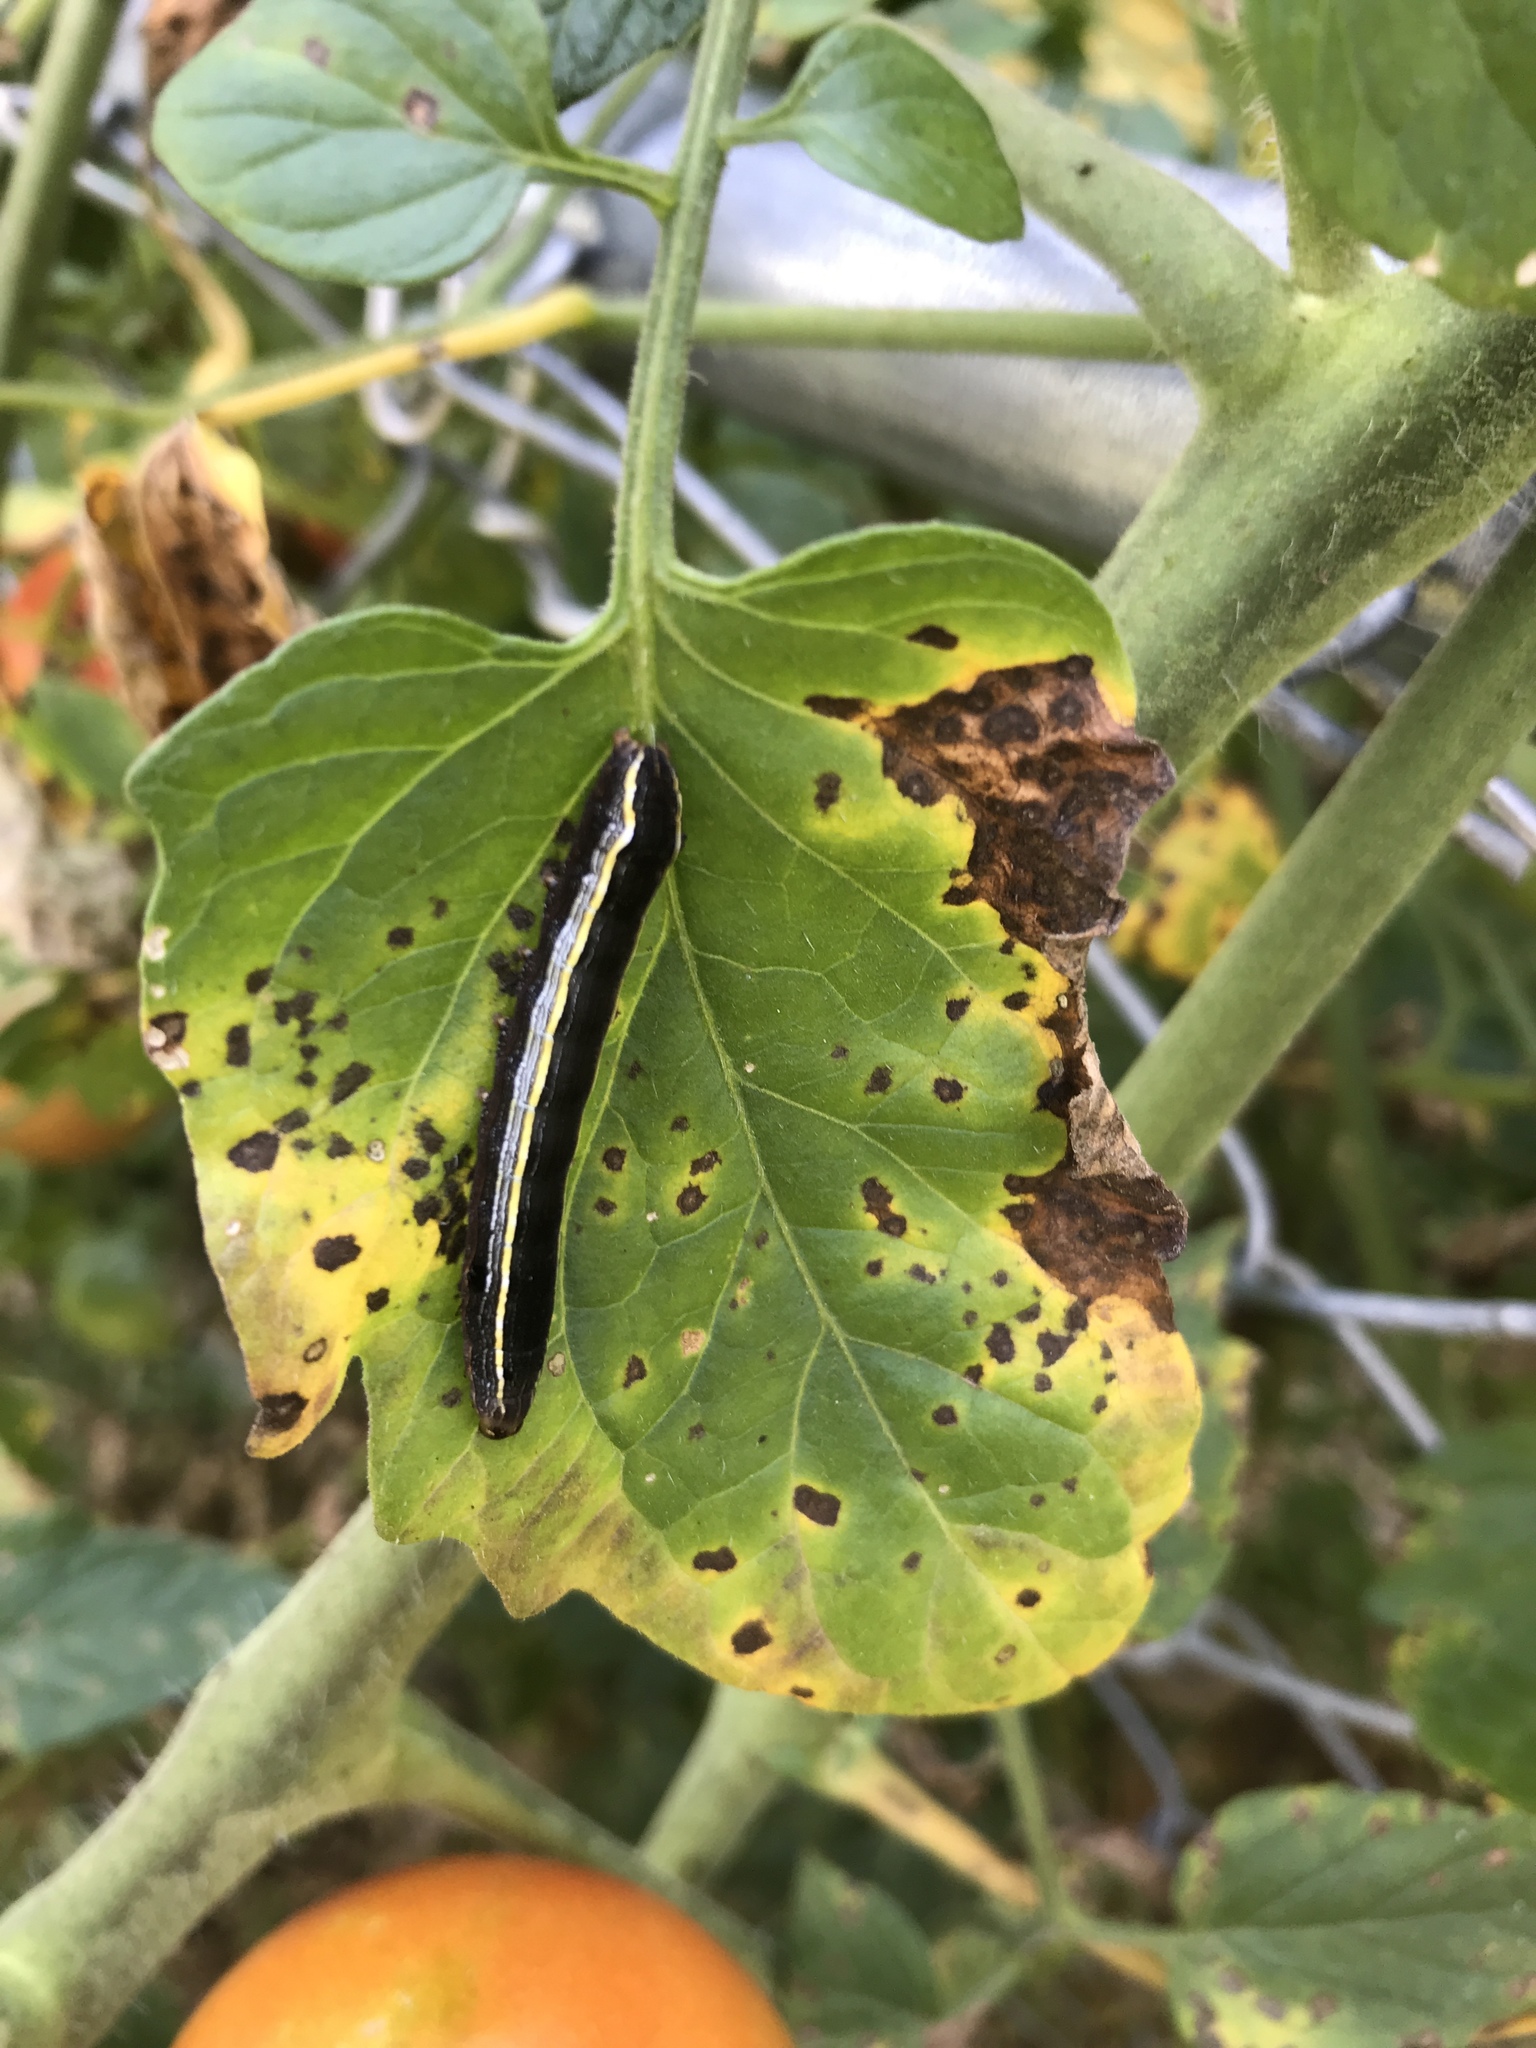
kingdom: Animalia
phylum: Arthropoda
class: Insecta
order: Lepidoptera
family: Noctuidae
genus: Spodoptera
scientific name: Spodoptera ornithogalli
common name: Yellow-striped armyworm
